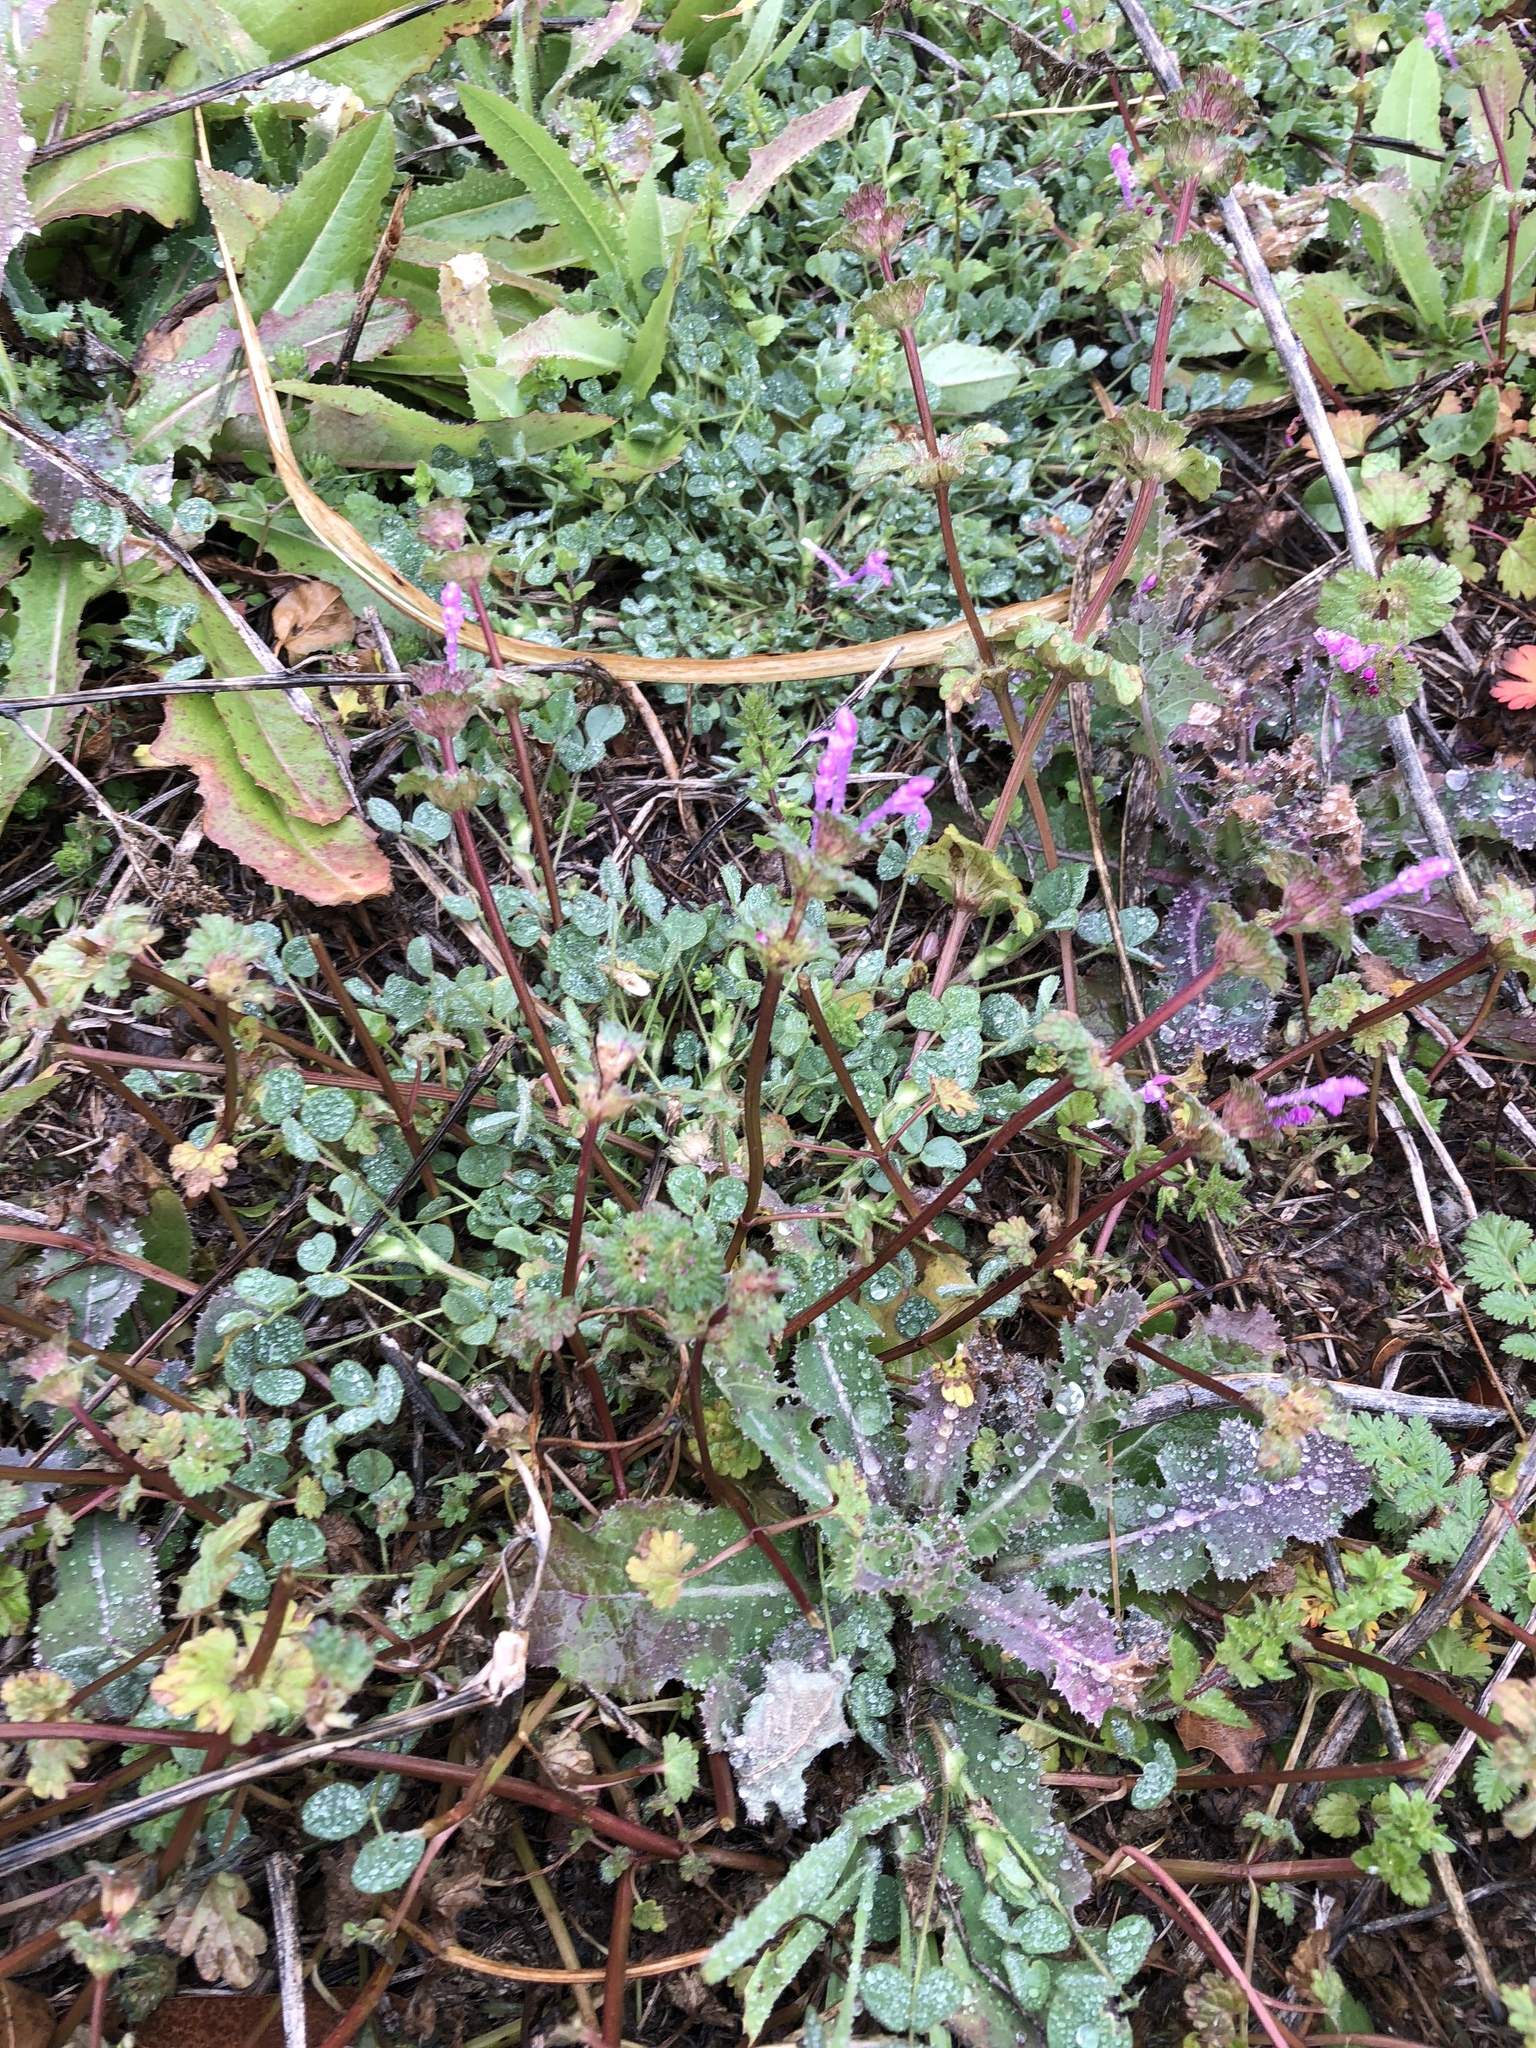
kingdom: Plantae
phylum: Tracheophyta
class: Magnoliopsida
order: Lamiales
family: Lamiaceae
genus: Lamium
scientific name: Lamium amplexicaule
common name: Henbit dead-nettle
